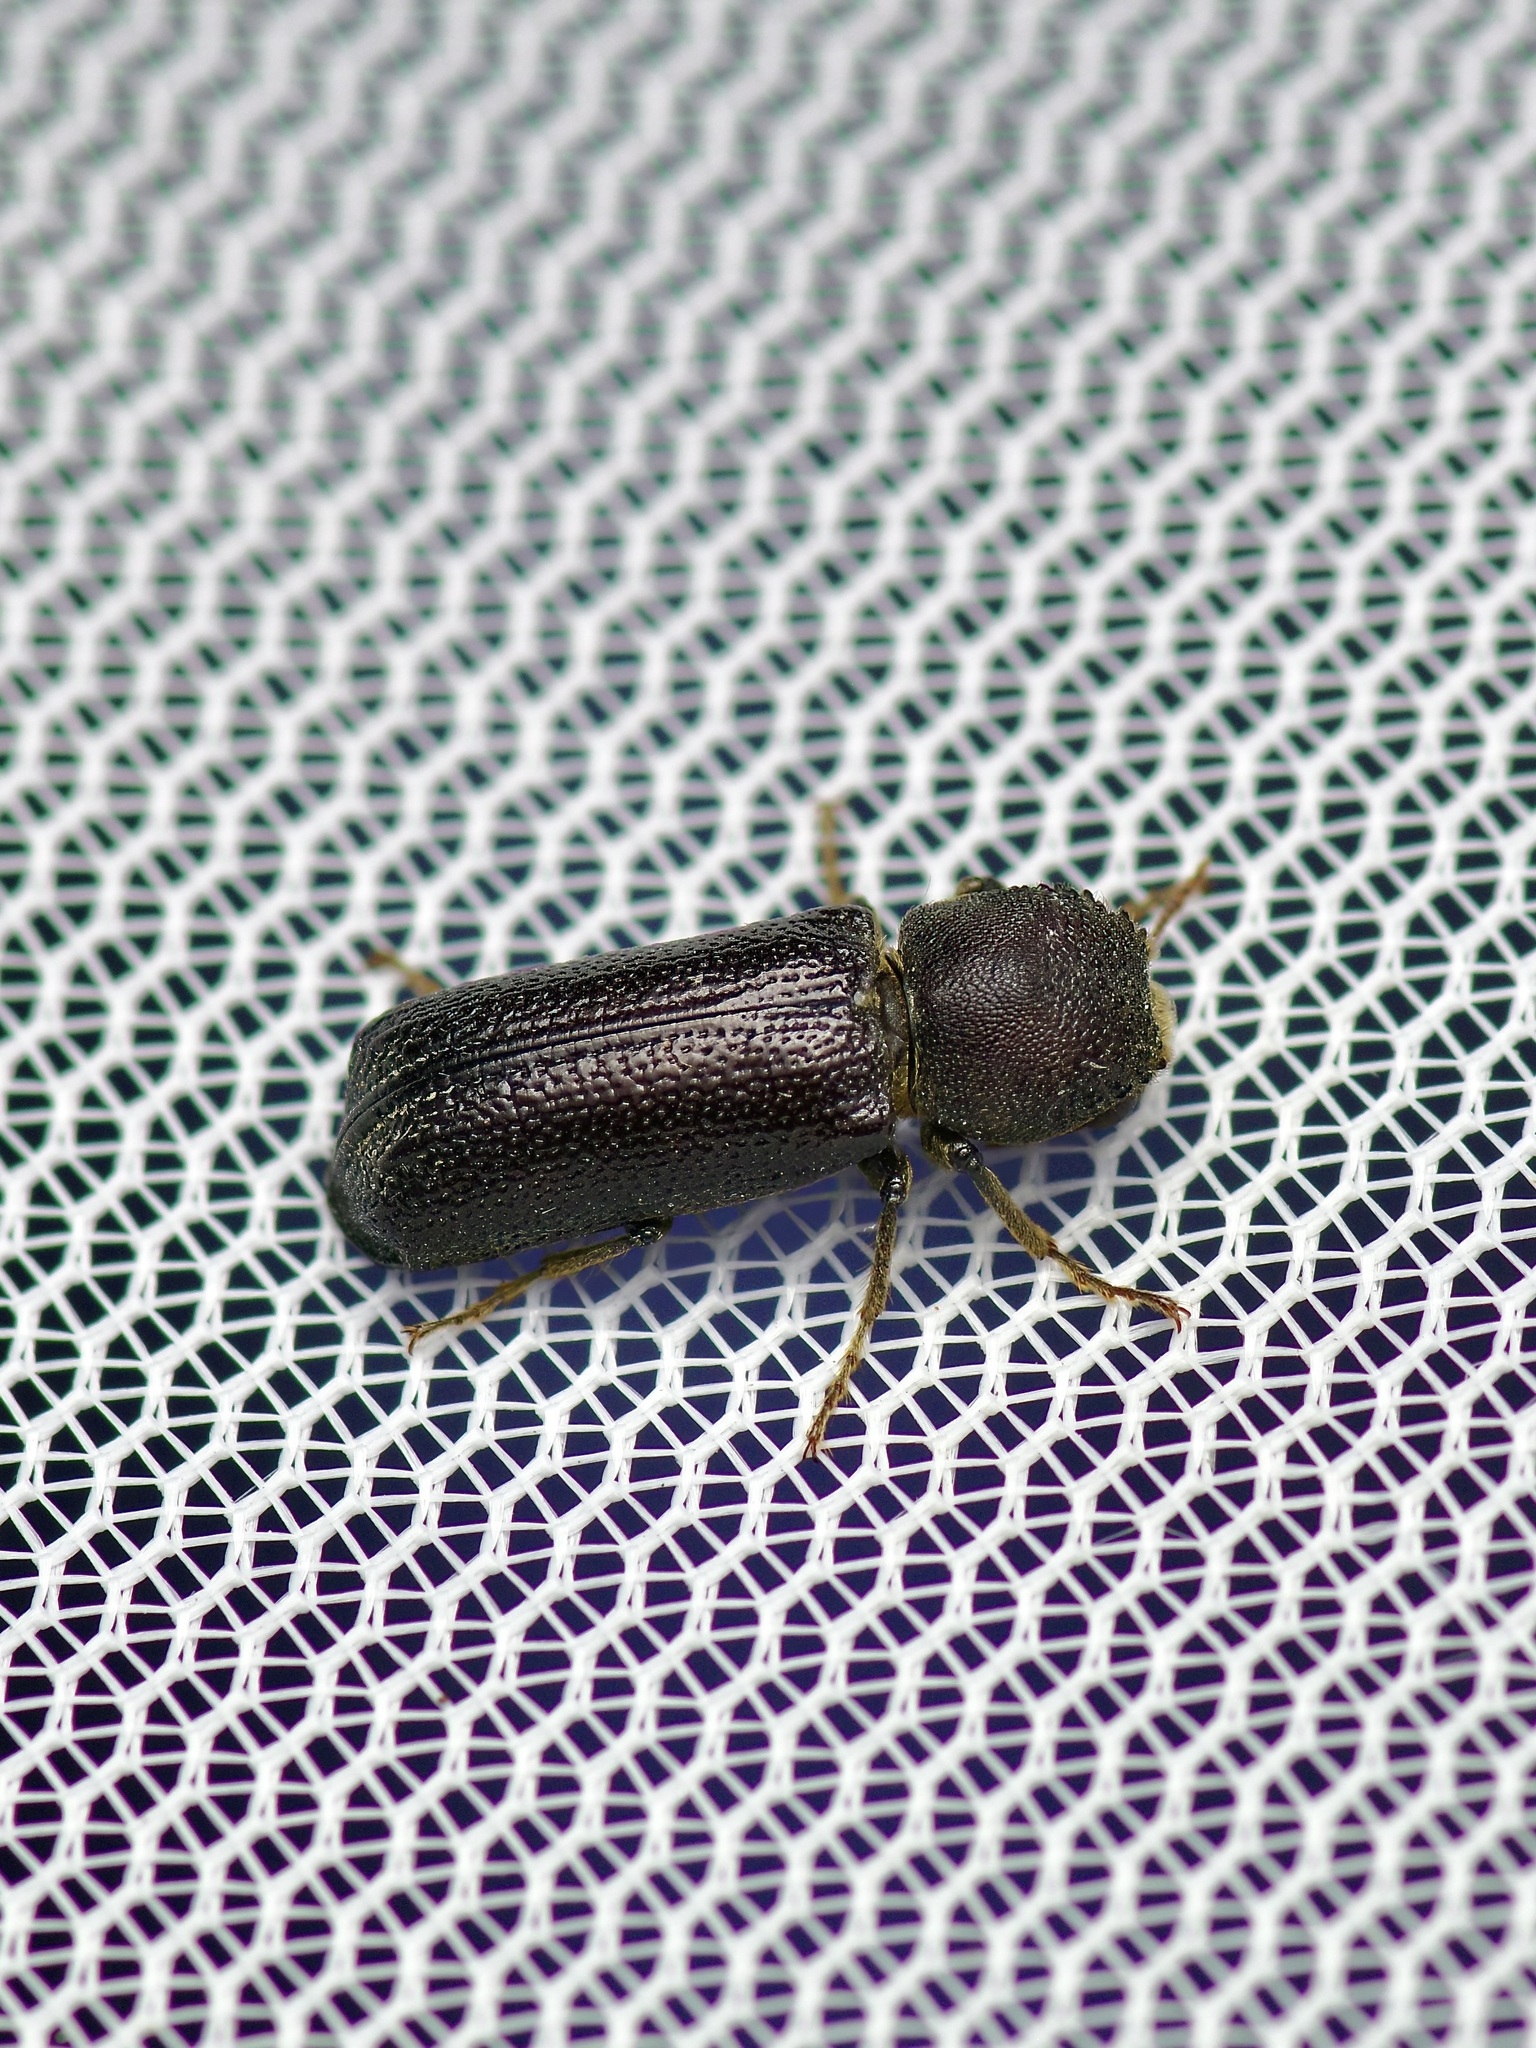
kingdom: Animalia
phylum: Arthropoda
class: Insecta
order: Coleoptera
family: Bostrichidae
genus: Amphicerus
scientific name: Amphicerus cornutus
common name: Powderpost beetle
